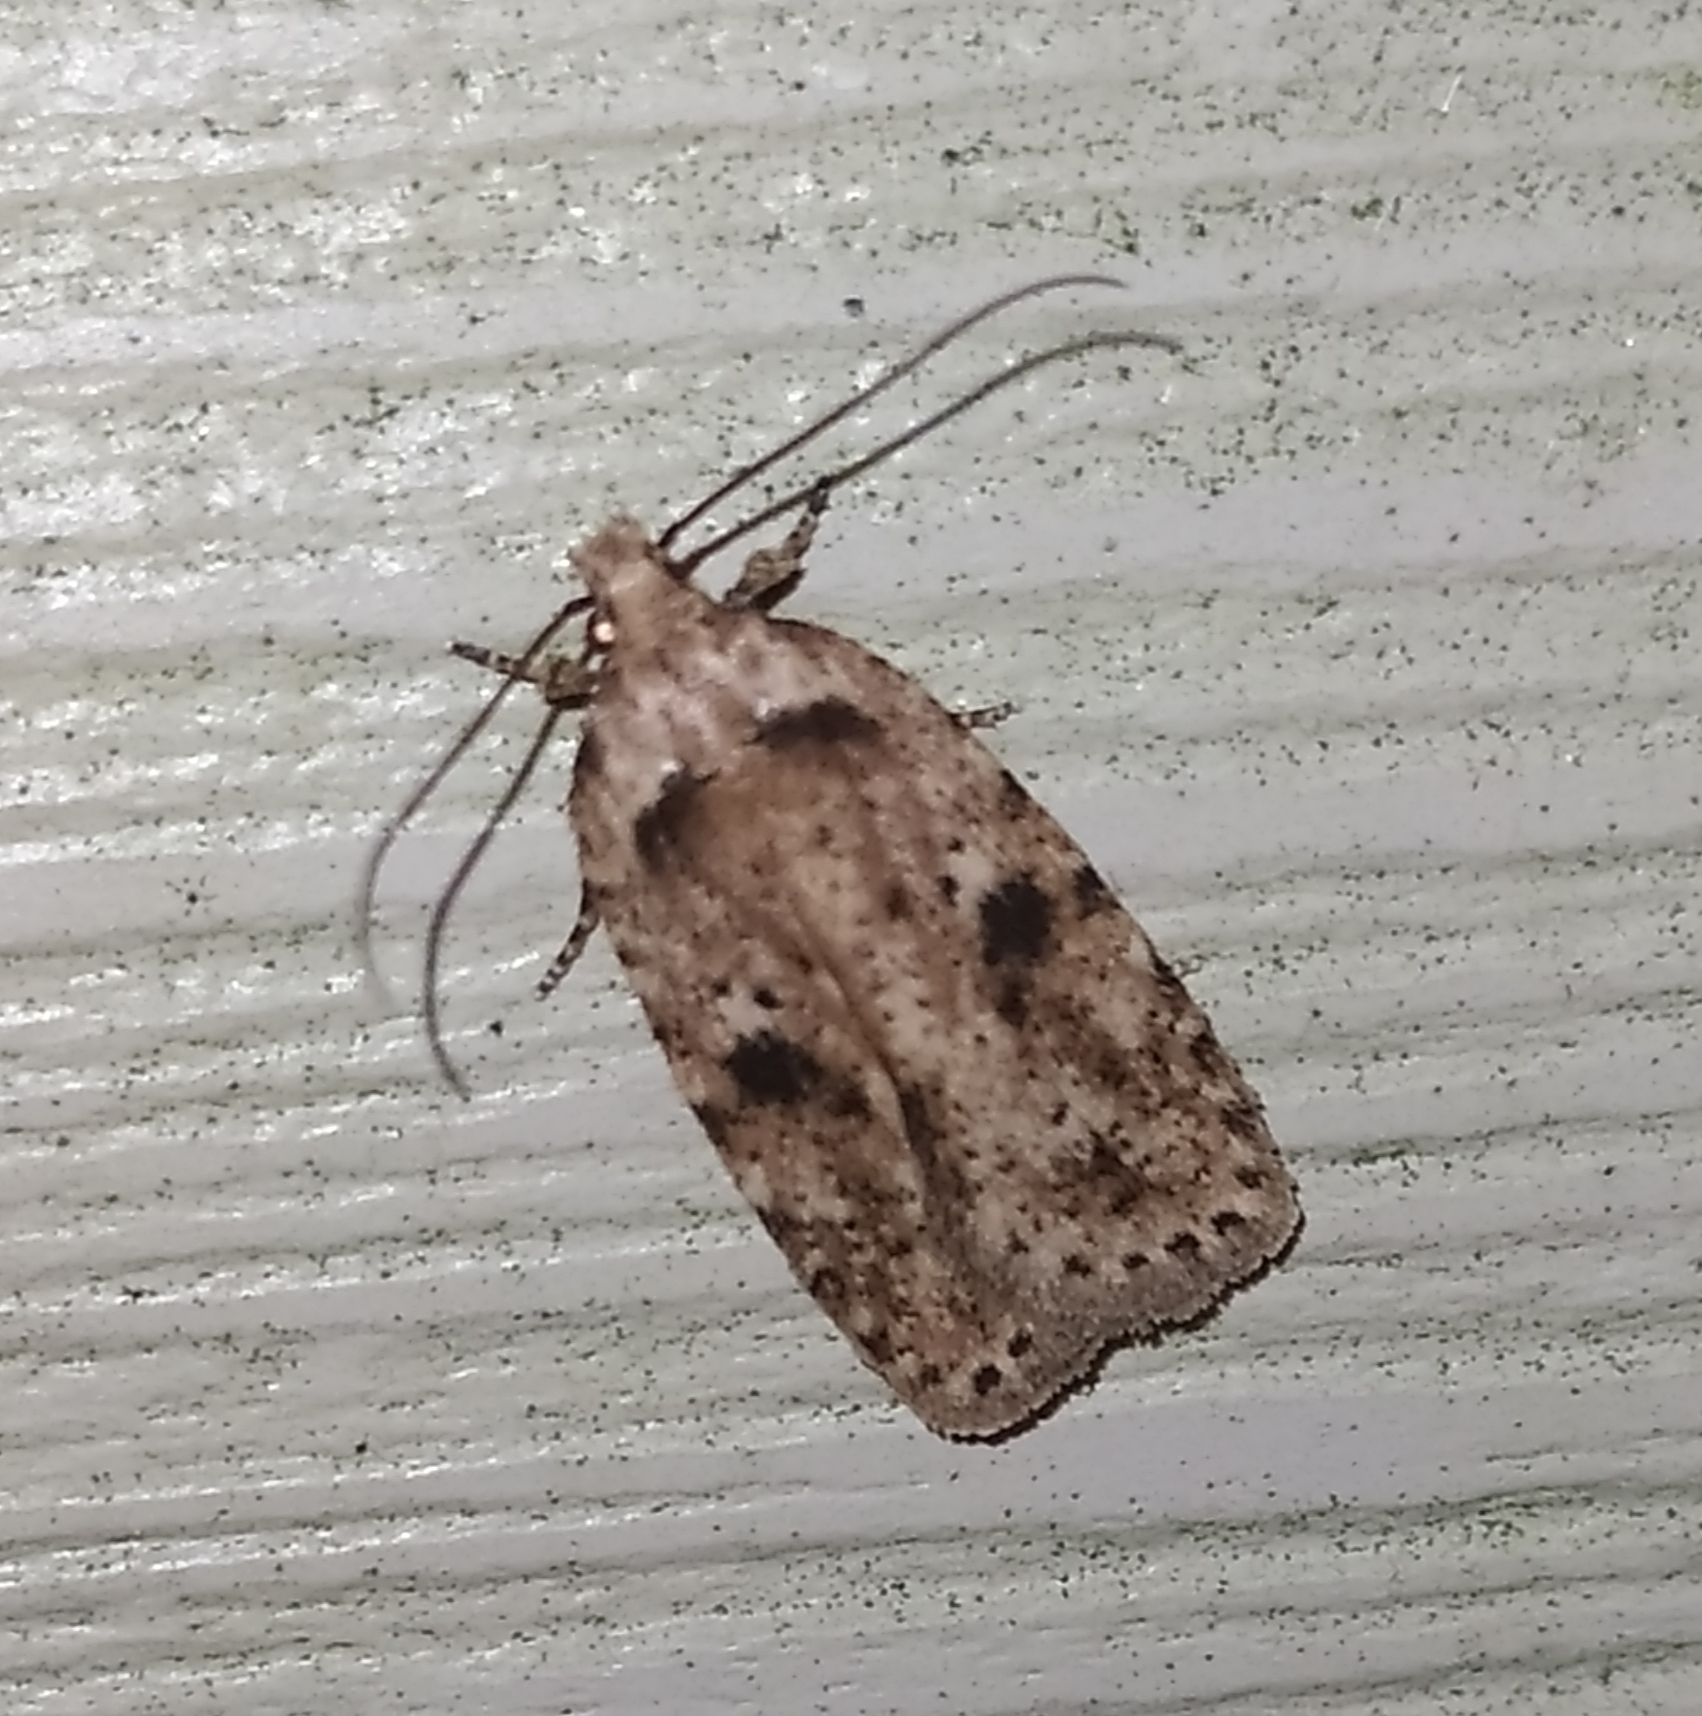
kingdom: Animalia
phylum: Arthropoda
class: Insecta
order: Lepidoptera
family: Depressariidae
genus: Agonopterix
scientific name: Agonopterix arenella
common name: Brindled flat-body
